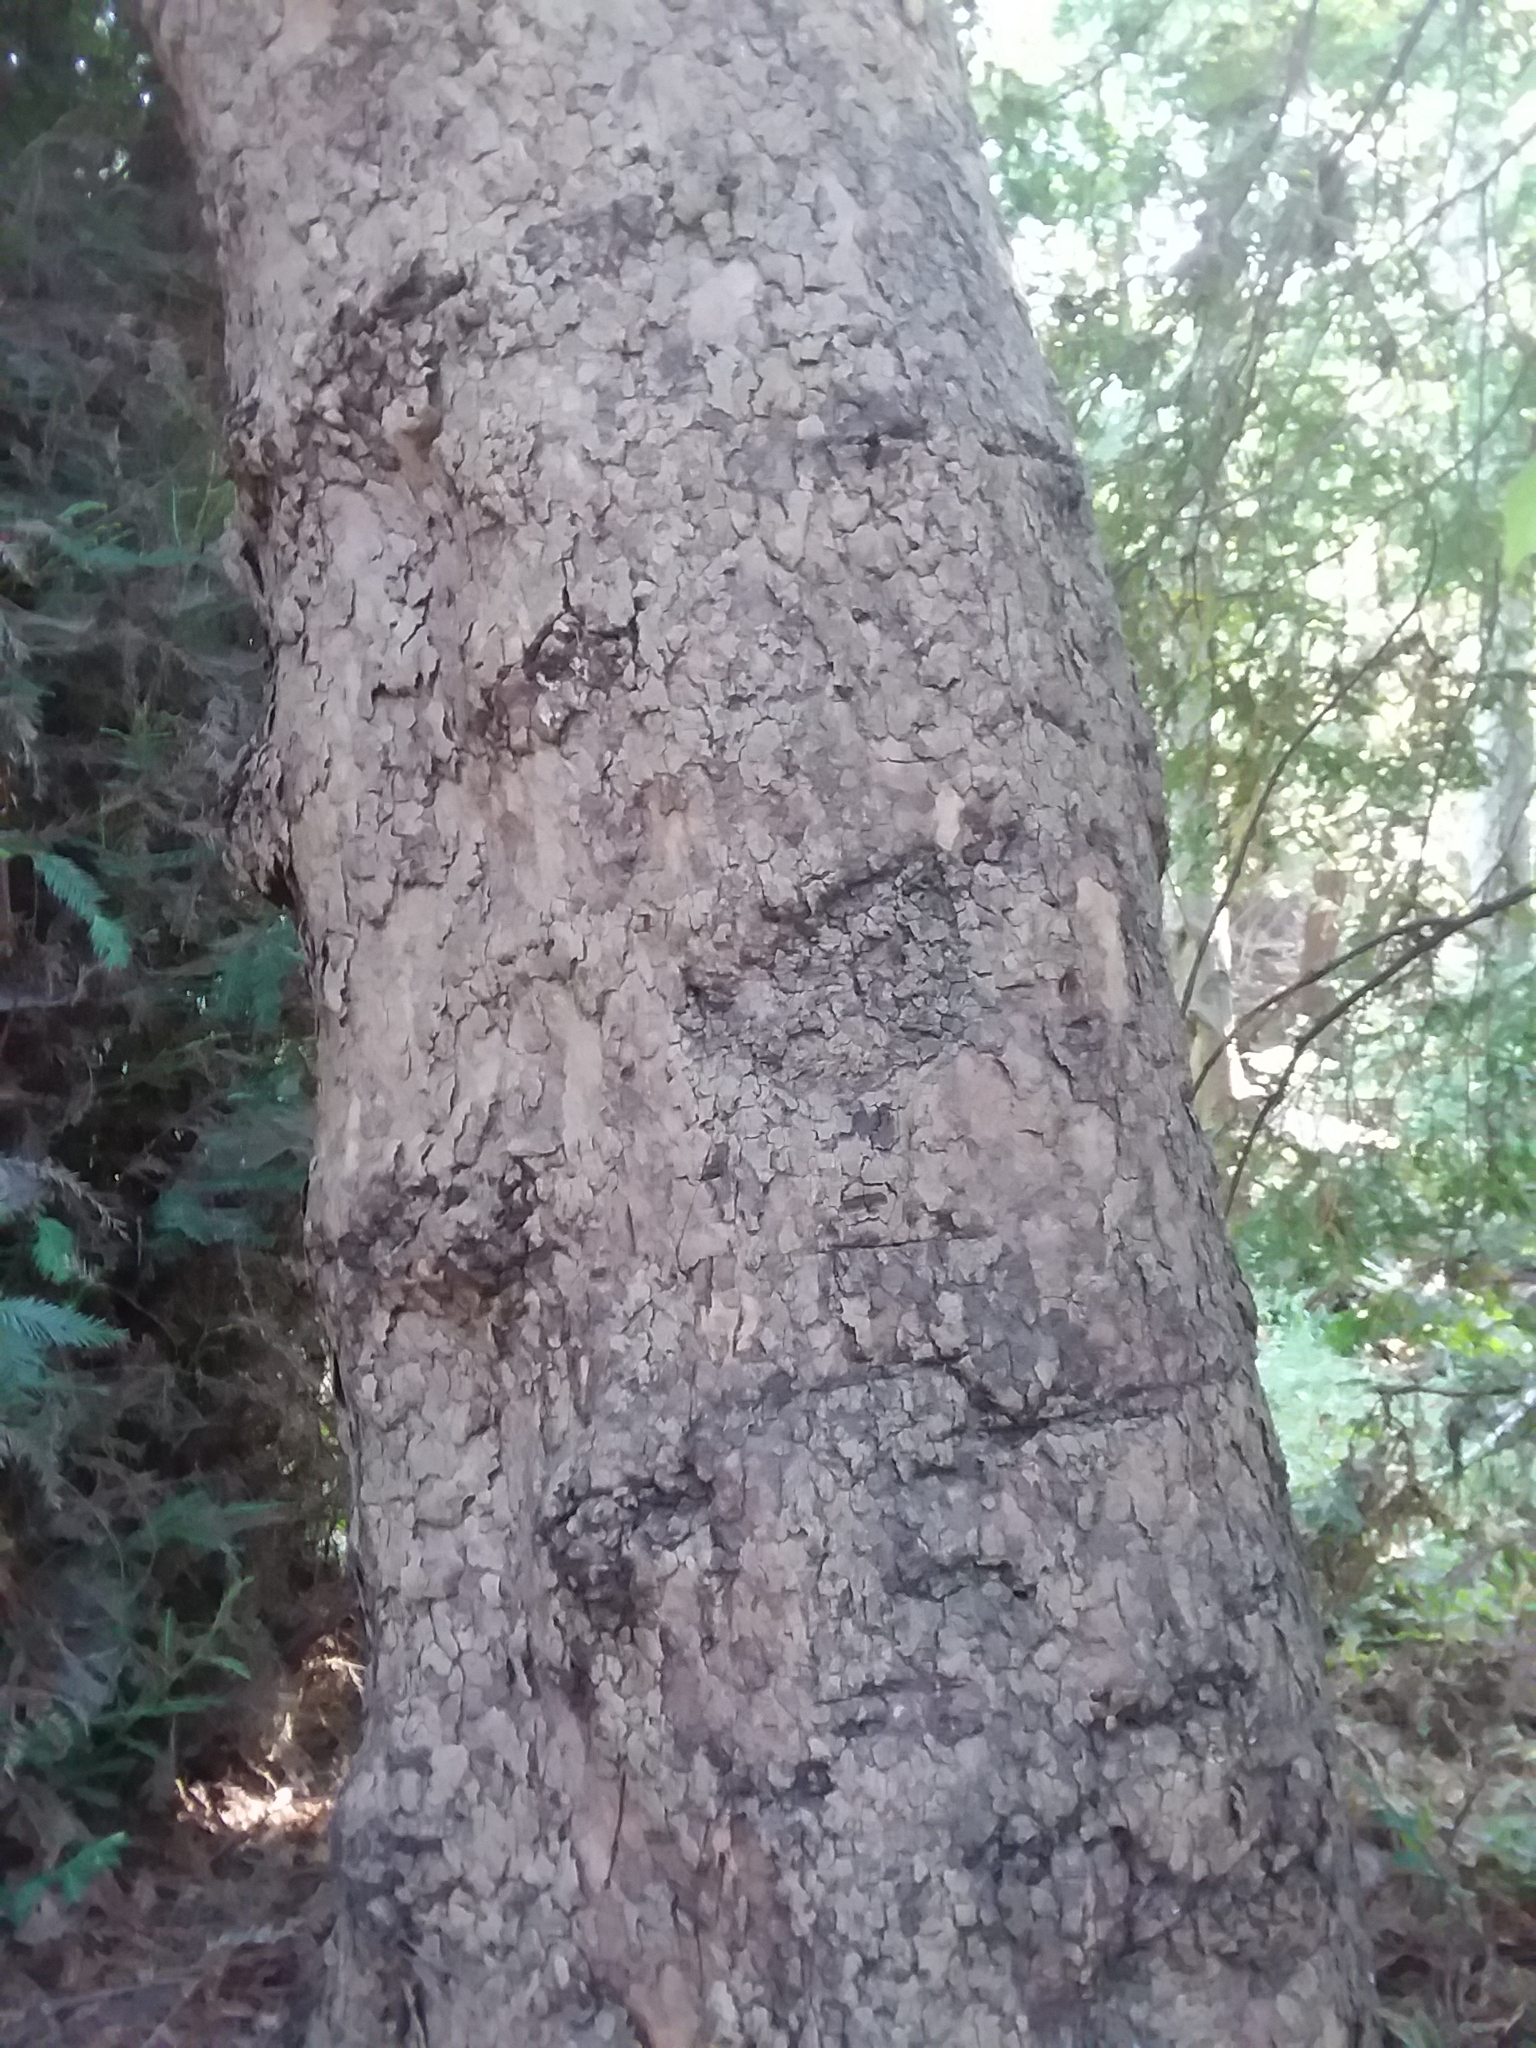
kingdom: Plantae
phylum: Tracheophyta
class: Magnoliopsida
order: Proteales
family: Platanaceae
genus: Platanus
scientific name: Platanus racemosa
